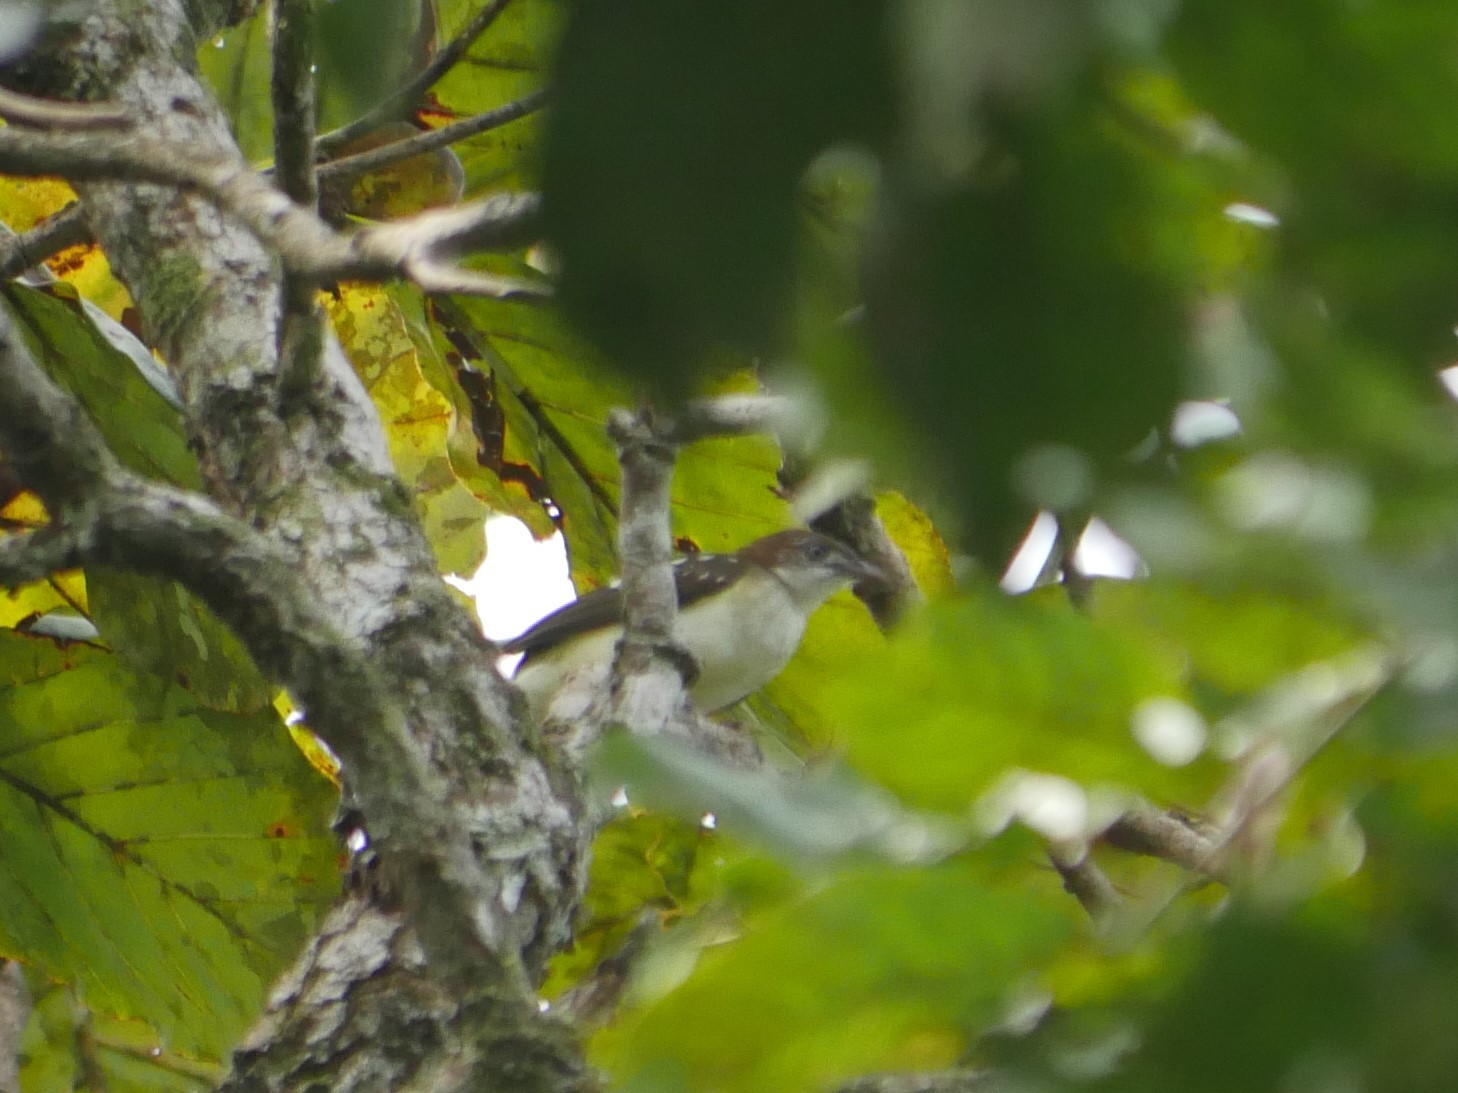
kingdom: Animalia
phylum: Chordata
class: Aves
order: Passeriformes
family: Pycnonotidae
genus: Ixonotus
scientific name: Ixonotus guttatus
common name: Spotted greenbul
